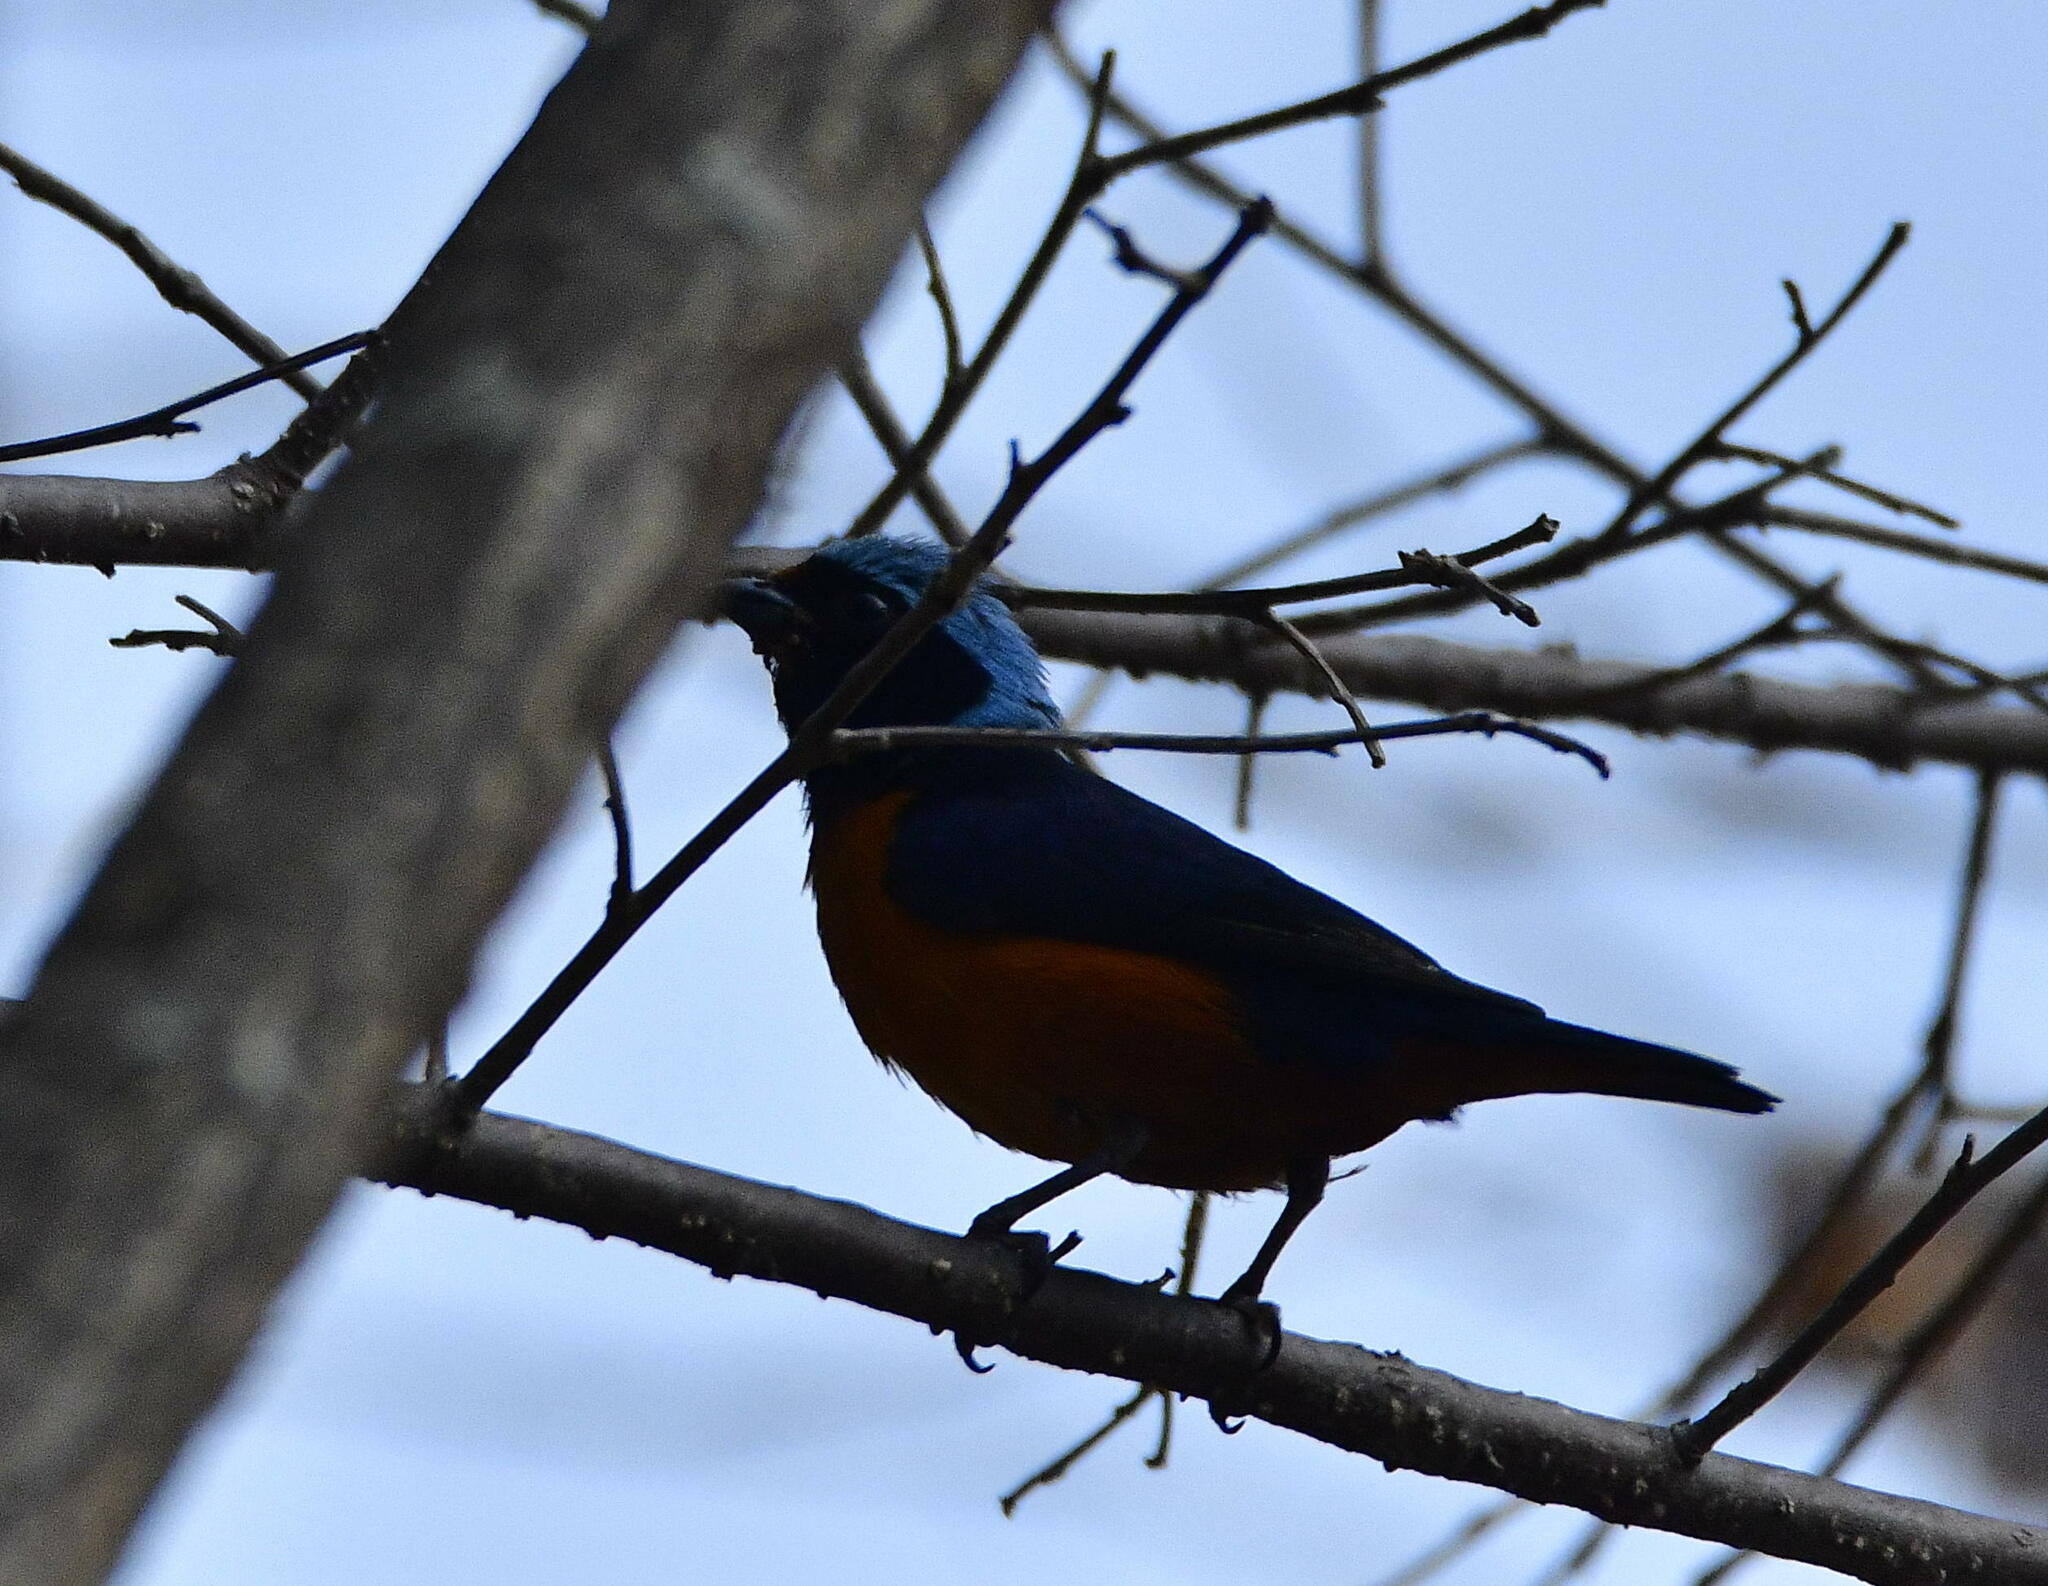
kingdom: Animalia
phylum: Chordata
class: Aves
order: Passeriformes
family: Fringillidae
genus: Euphonia
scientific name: Euphonia elegantissima
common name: Elegant euphonia
